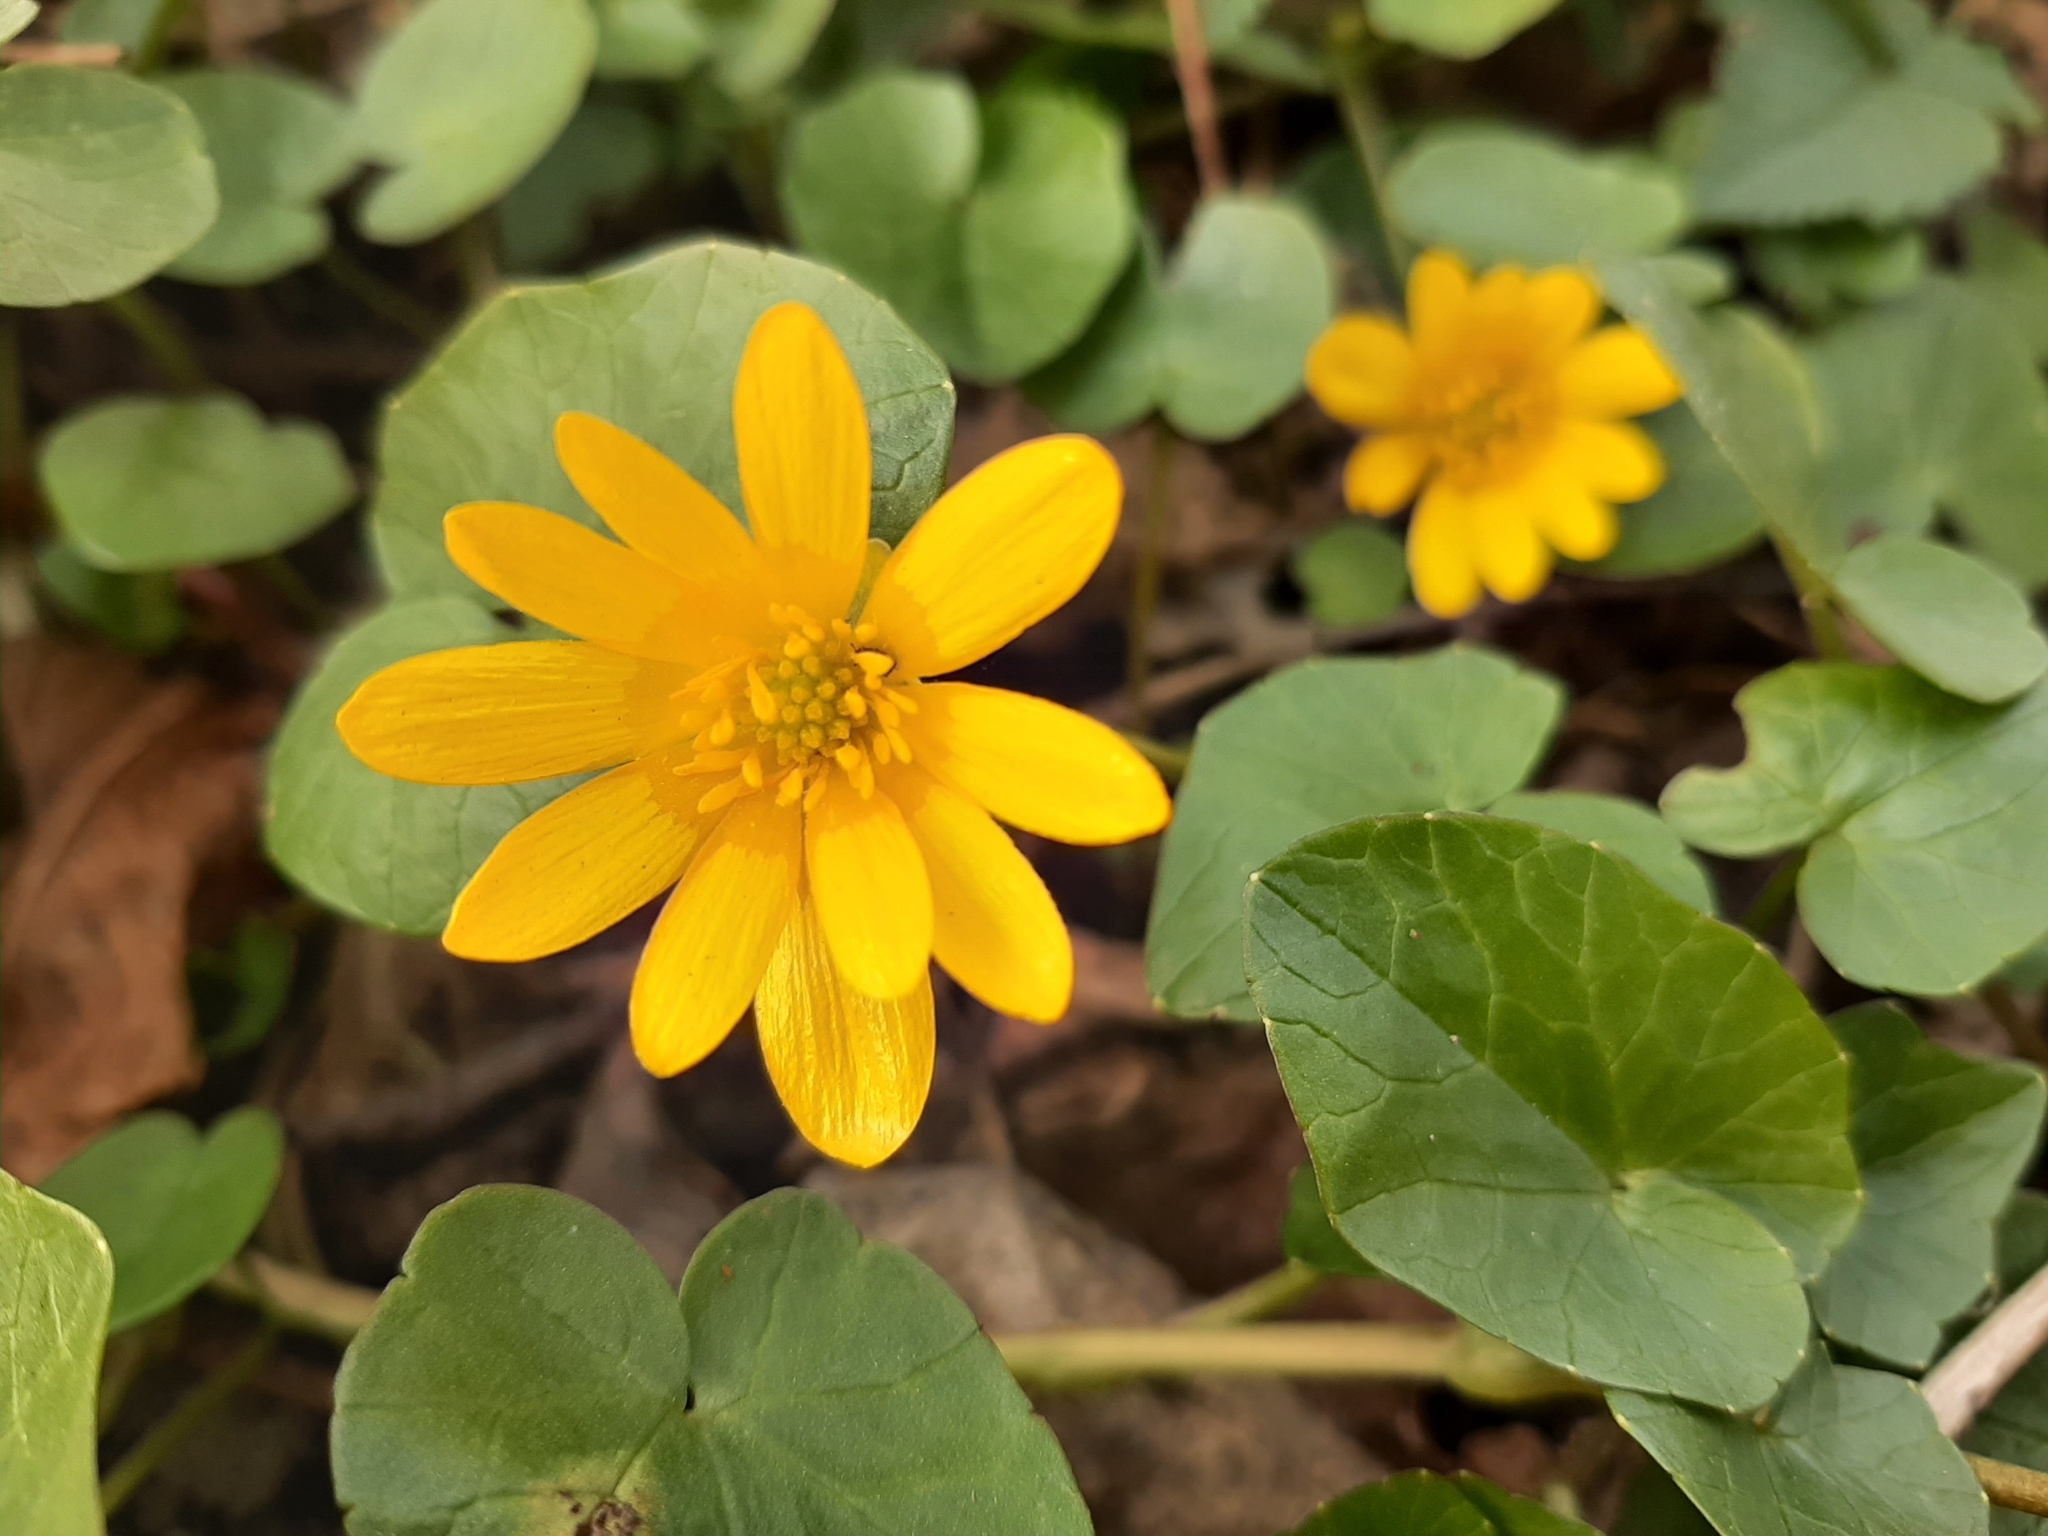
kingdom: Plantae
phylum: Tracheophyta
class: Magnoliopsida
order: Ranunculales
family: Ranunculaceae
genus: Ficaria
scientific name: Ficaria verna
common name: Lesser celandine
